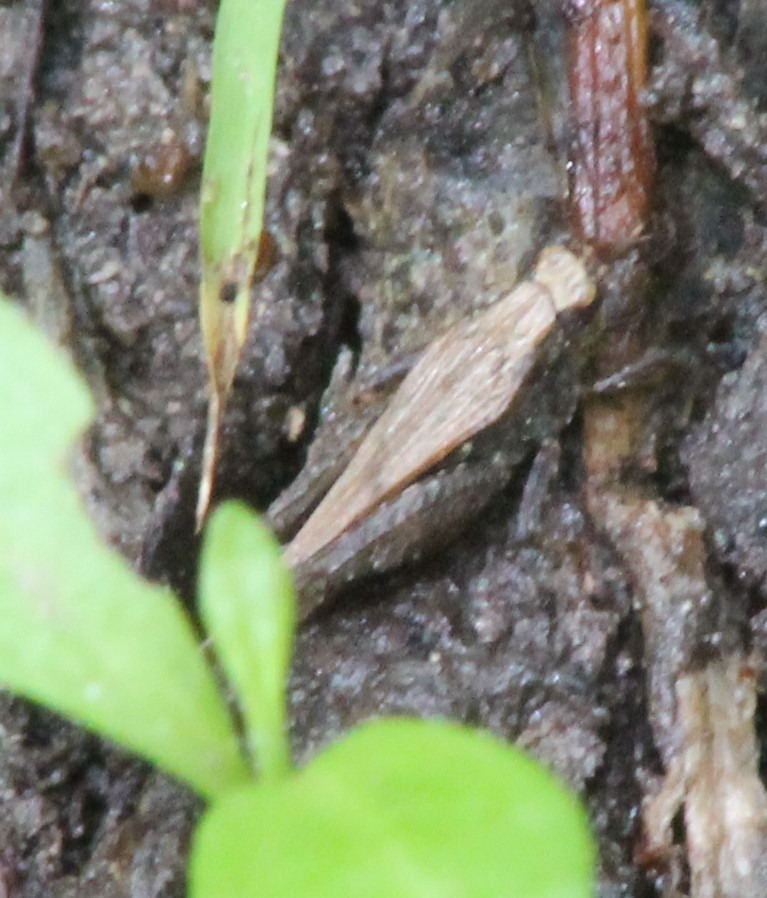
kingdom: Animalia
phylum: Arthropoda
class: Insecta
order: Orthoptera
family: Tetrigidae
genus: Tettigidea
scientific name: Tettigidea laterale
